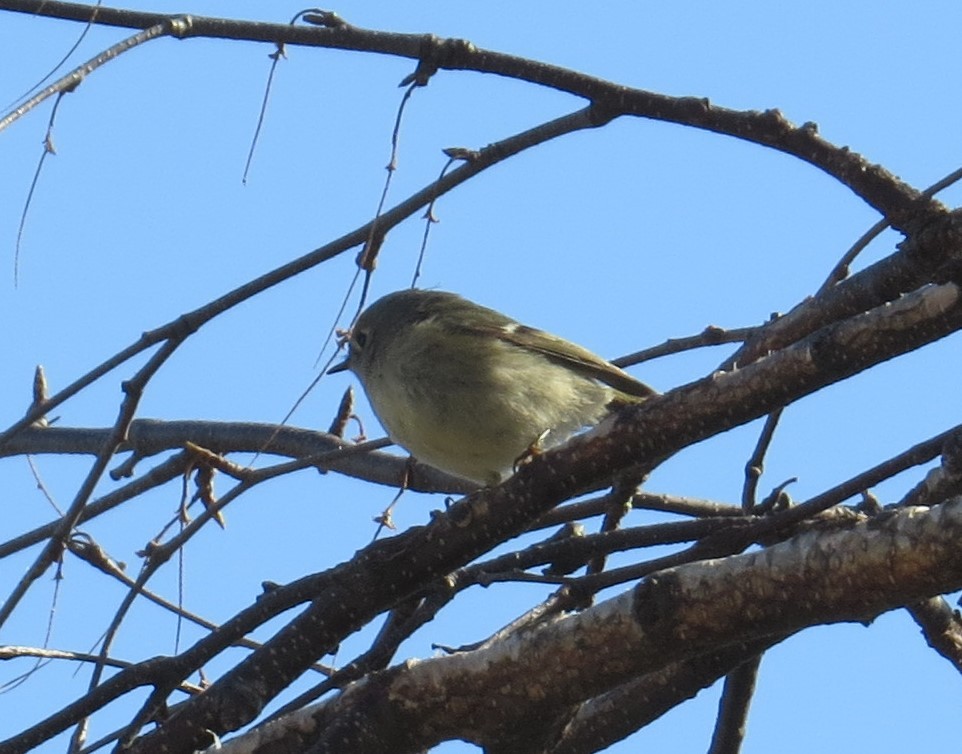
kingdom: Animalia
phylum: Chordata
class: Aves
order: Passeriformes
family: Regulidae
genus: Regulus
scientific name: Regulus calendula
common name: Ruby-crowned kinglet
